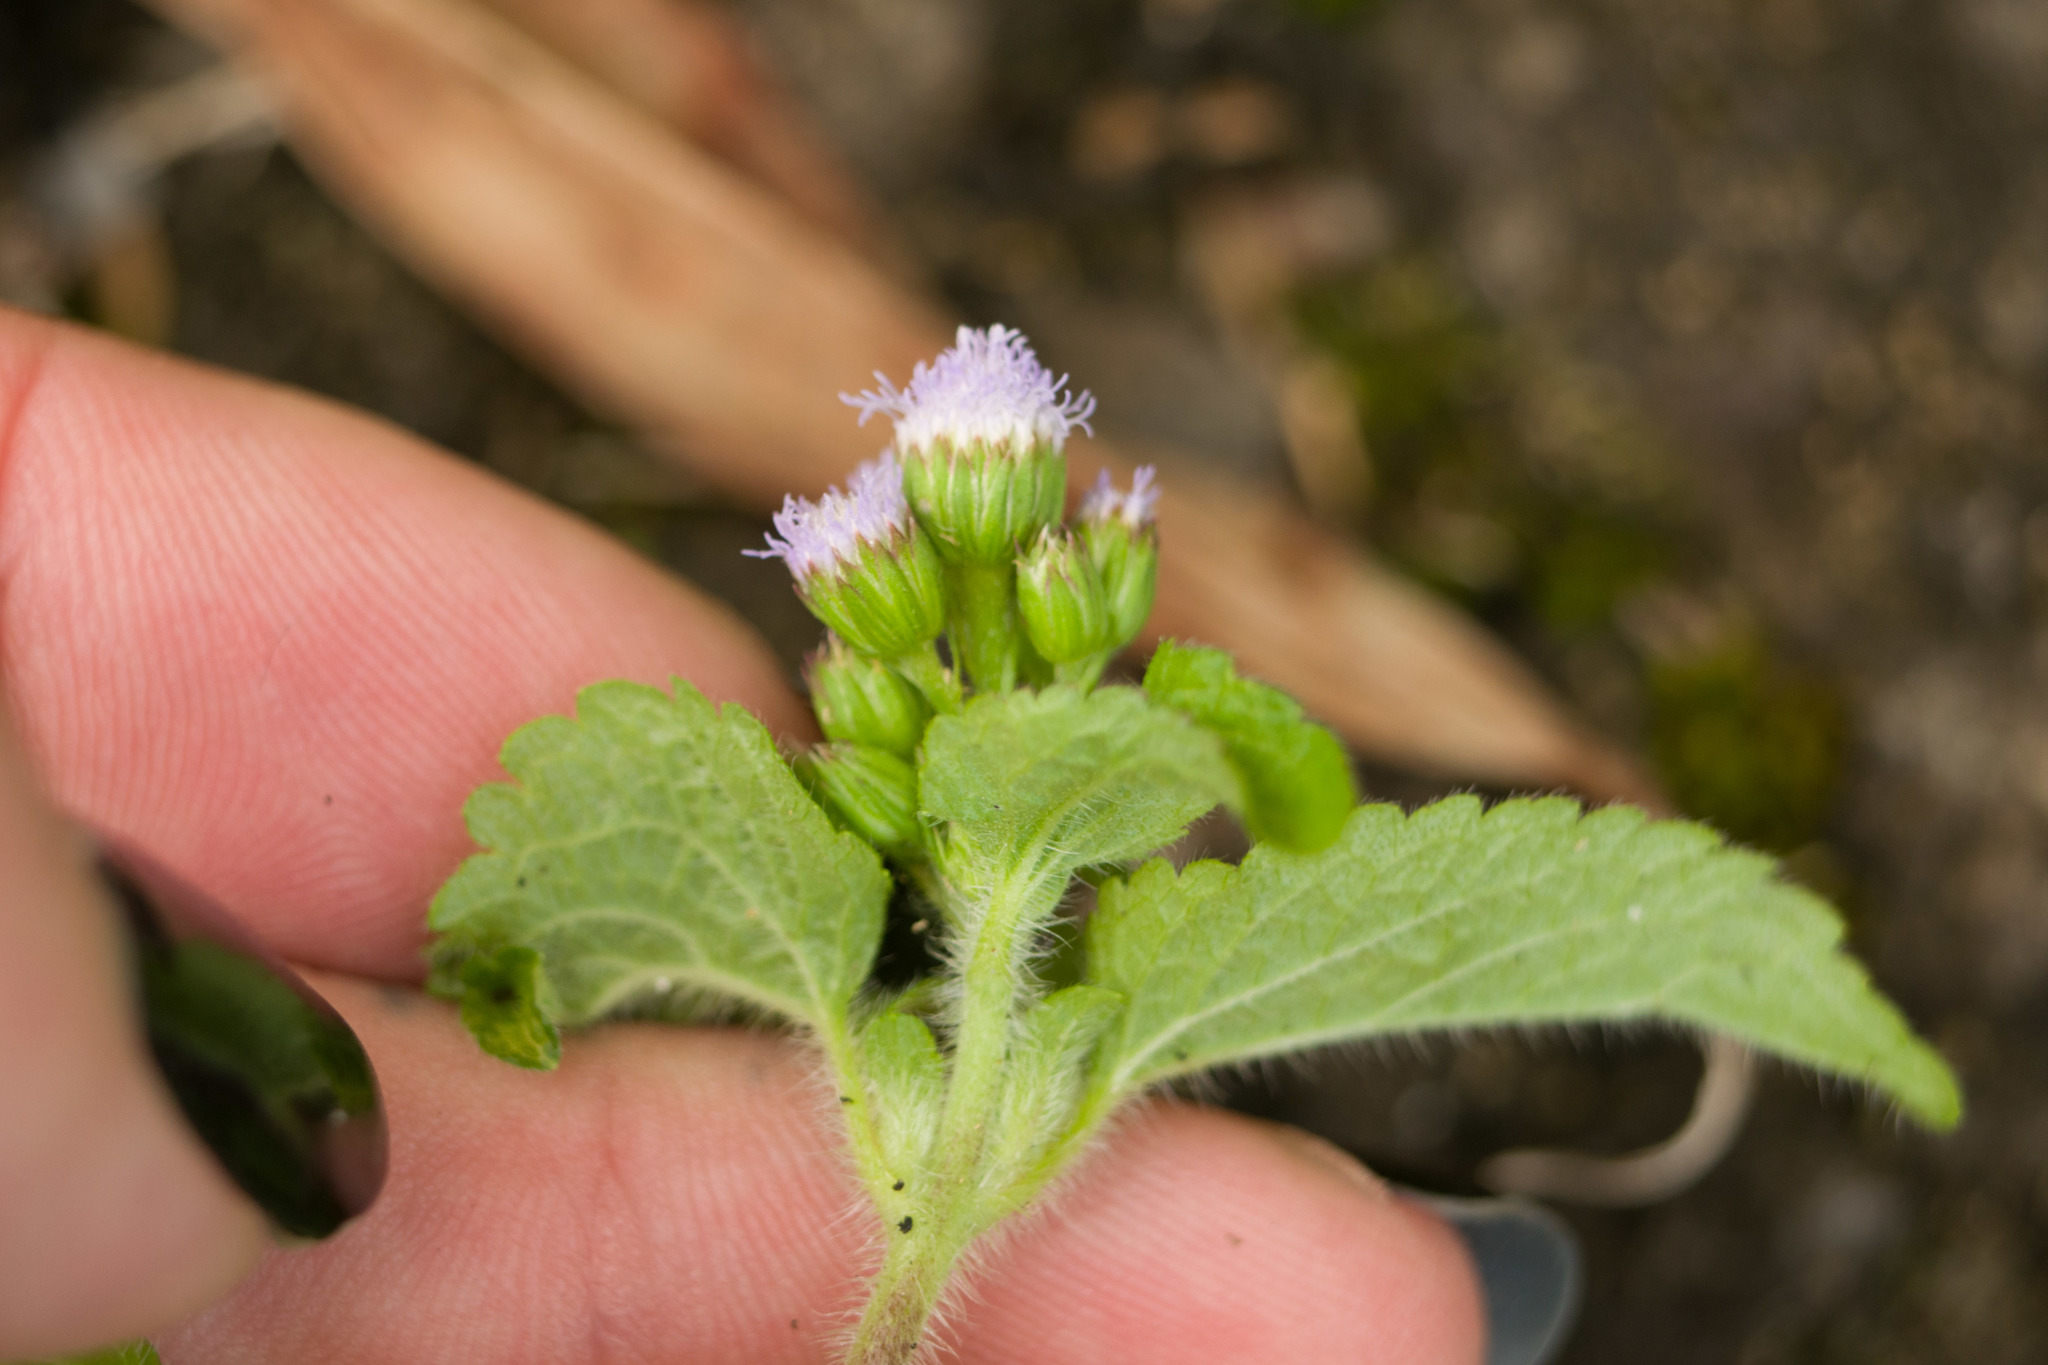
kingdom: Plantae
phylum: Tracheophyta
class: Magnoliopsida
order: Asterales
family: Asteraceae
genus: Ageratum
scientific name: Ageratum conyzoides
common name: Tropical whiteweed
